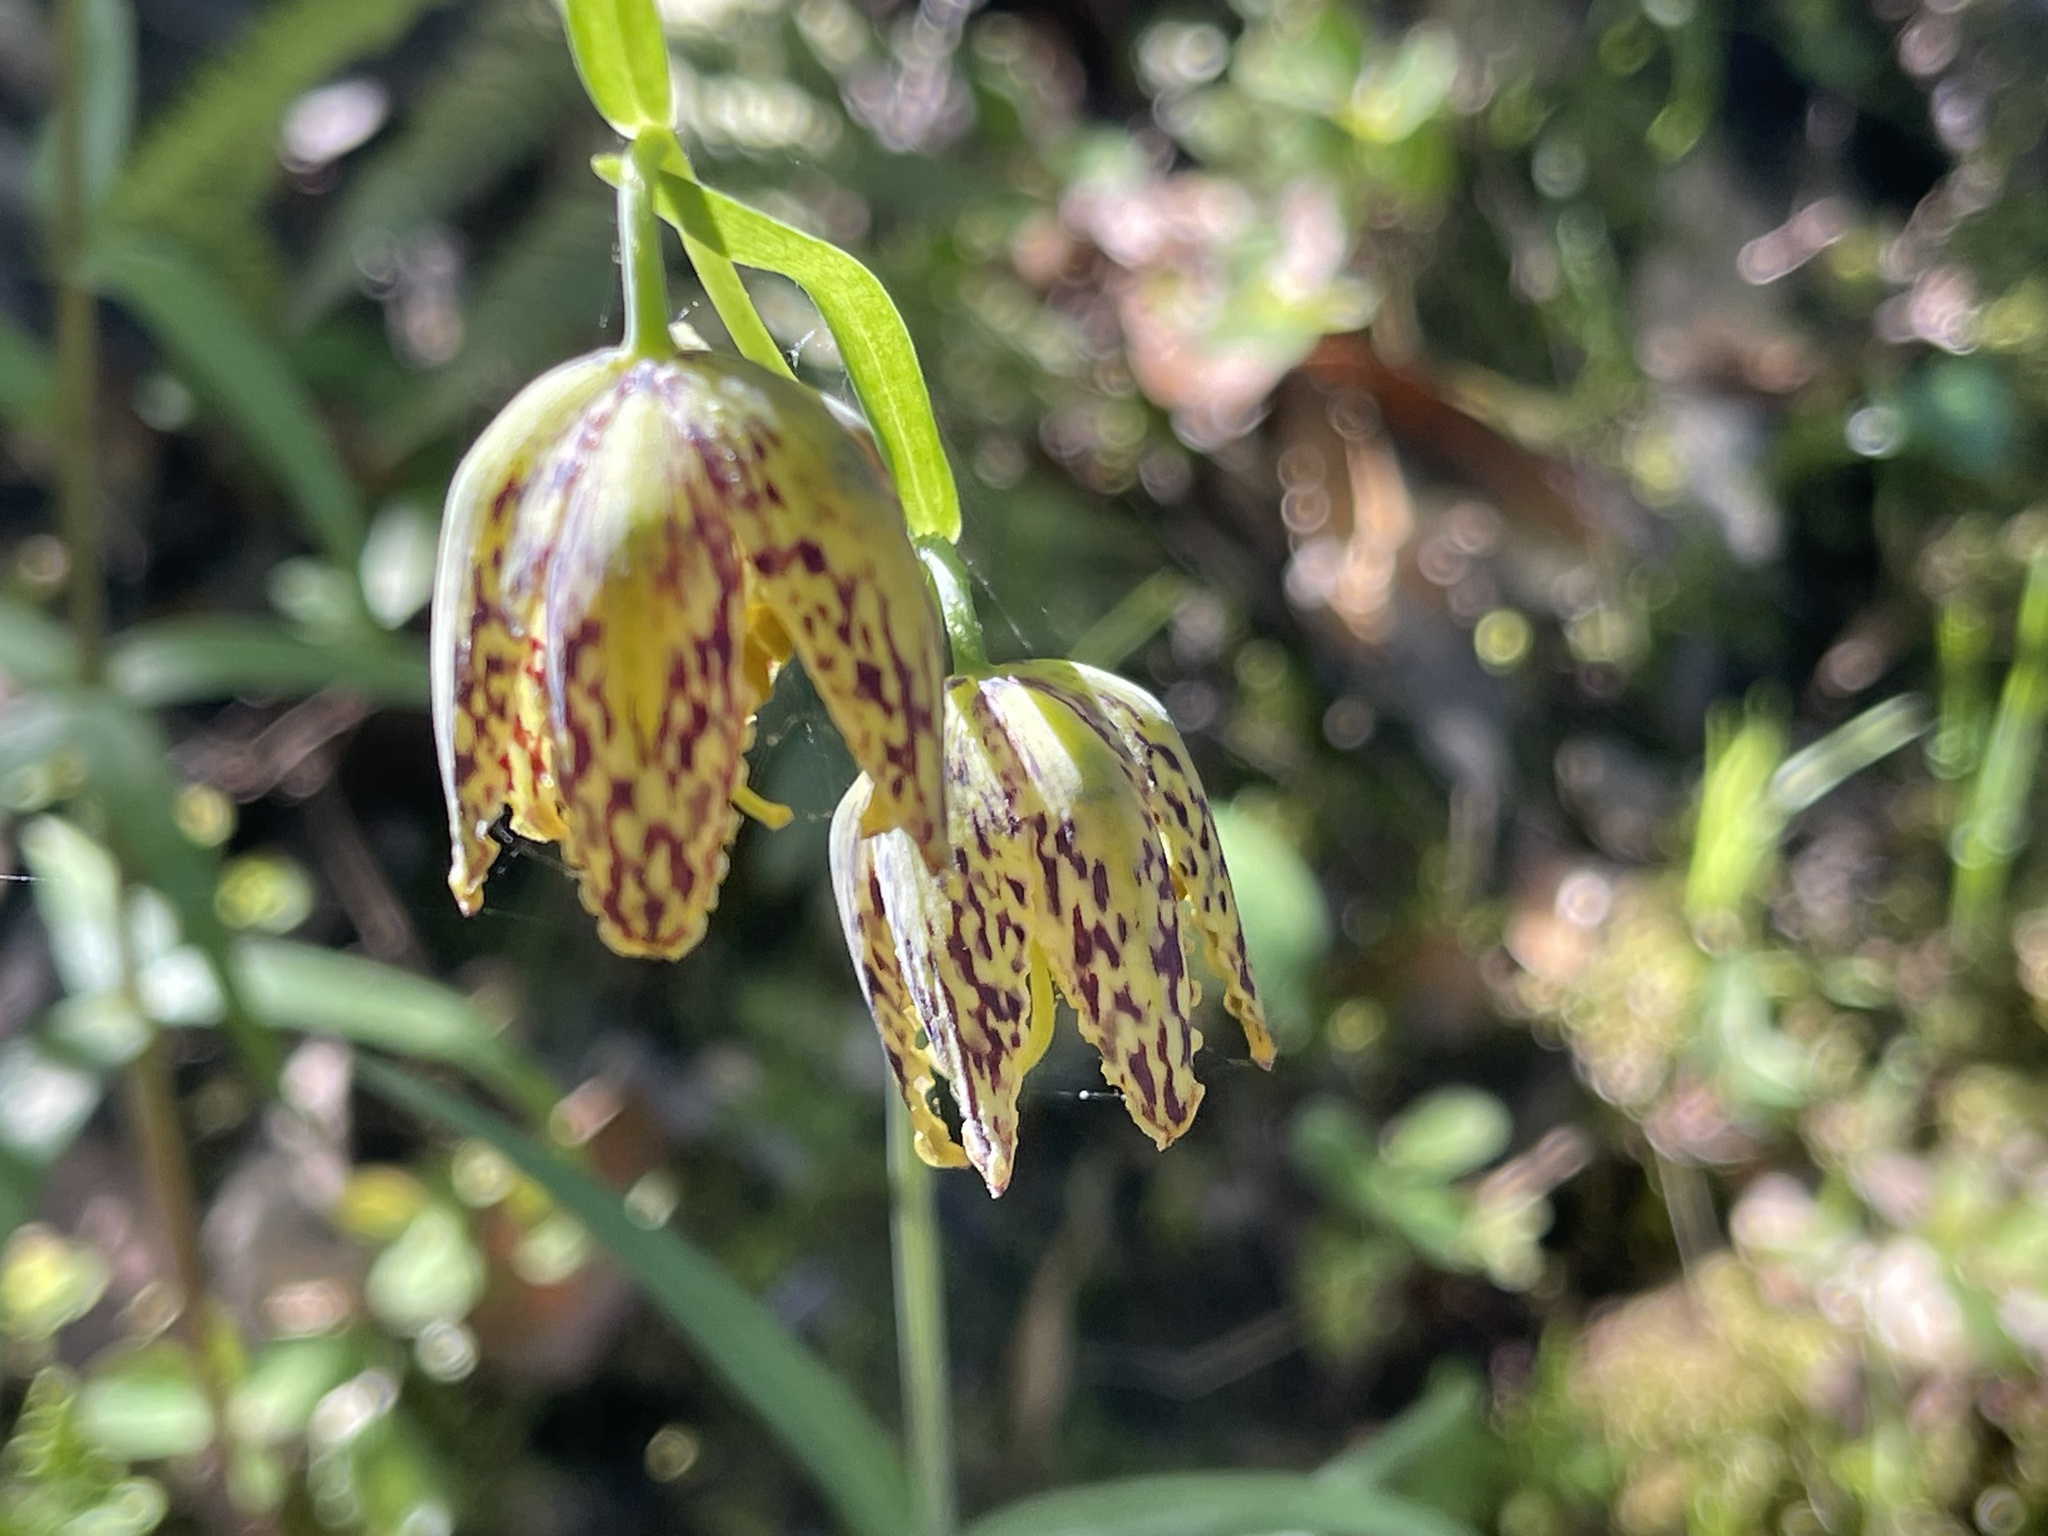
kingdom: Plantae
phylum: Tracheophyta
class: Liliopsida
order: Liliales
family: Liliaceae
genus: Fritillaria
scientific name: Fritillaria affinis
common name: Ojai fritillary
